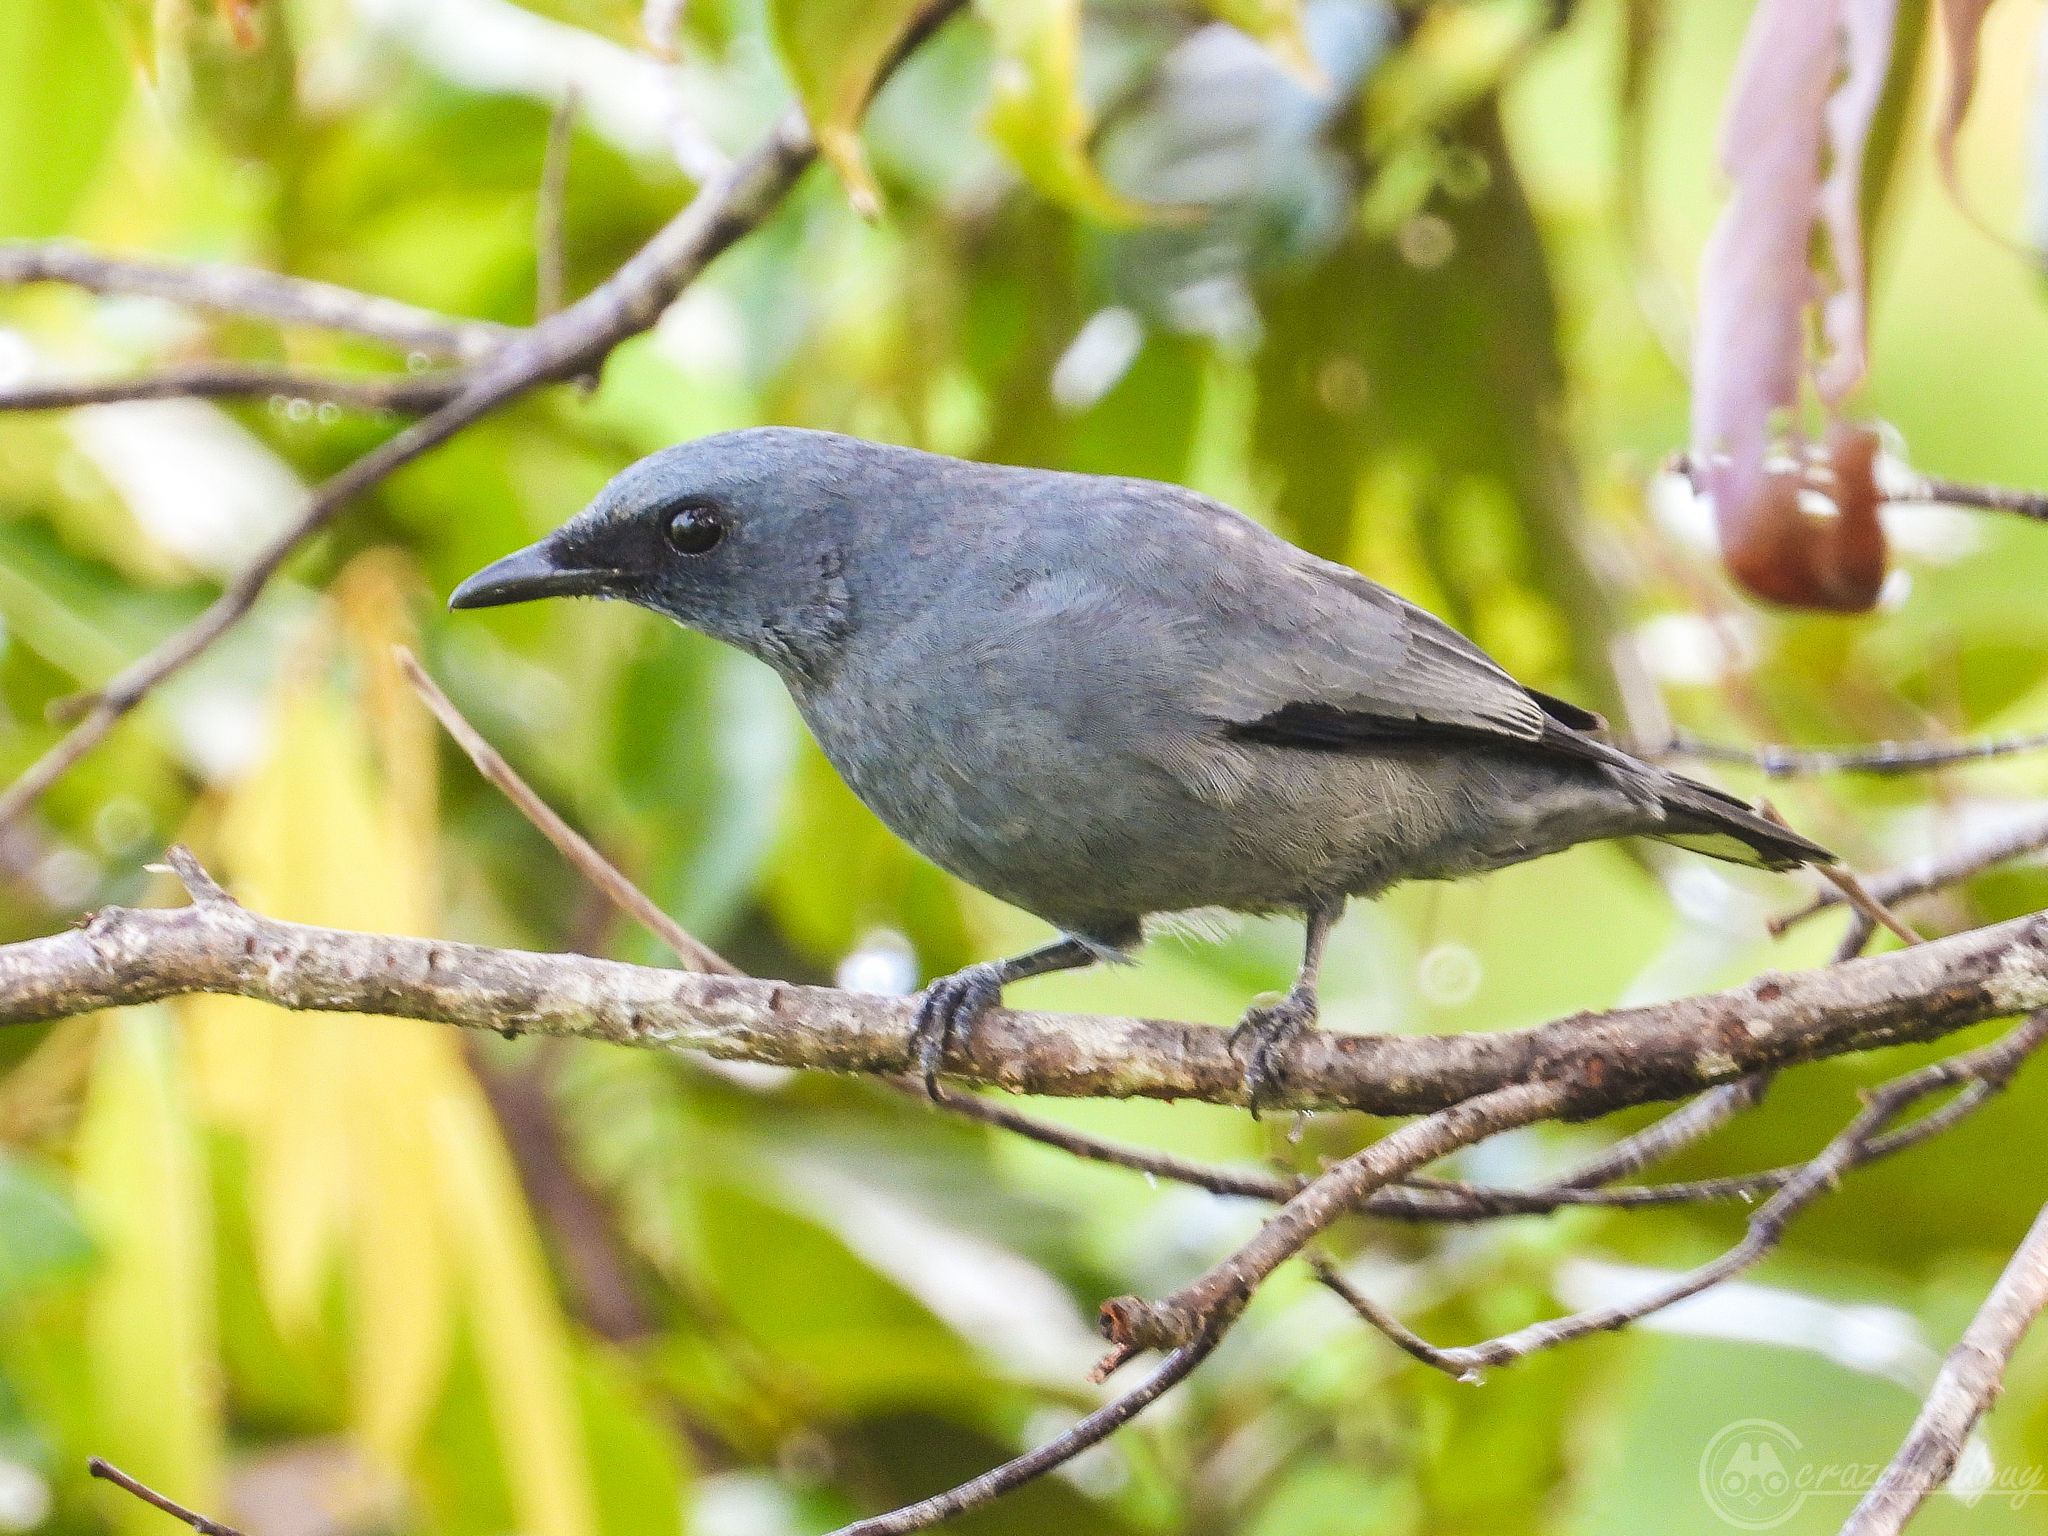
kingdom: Animalia
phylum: Chordata
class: Aves
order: Passeriformes
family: Campephagidae
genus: Coracina
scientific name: Coracina schisticeps
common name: Black-tipped cicadabird
